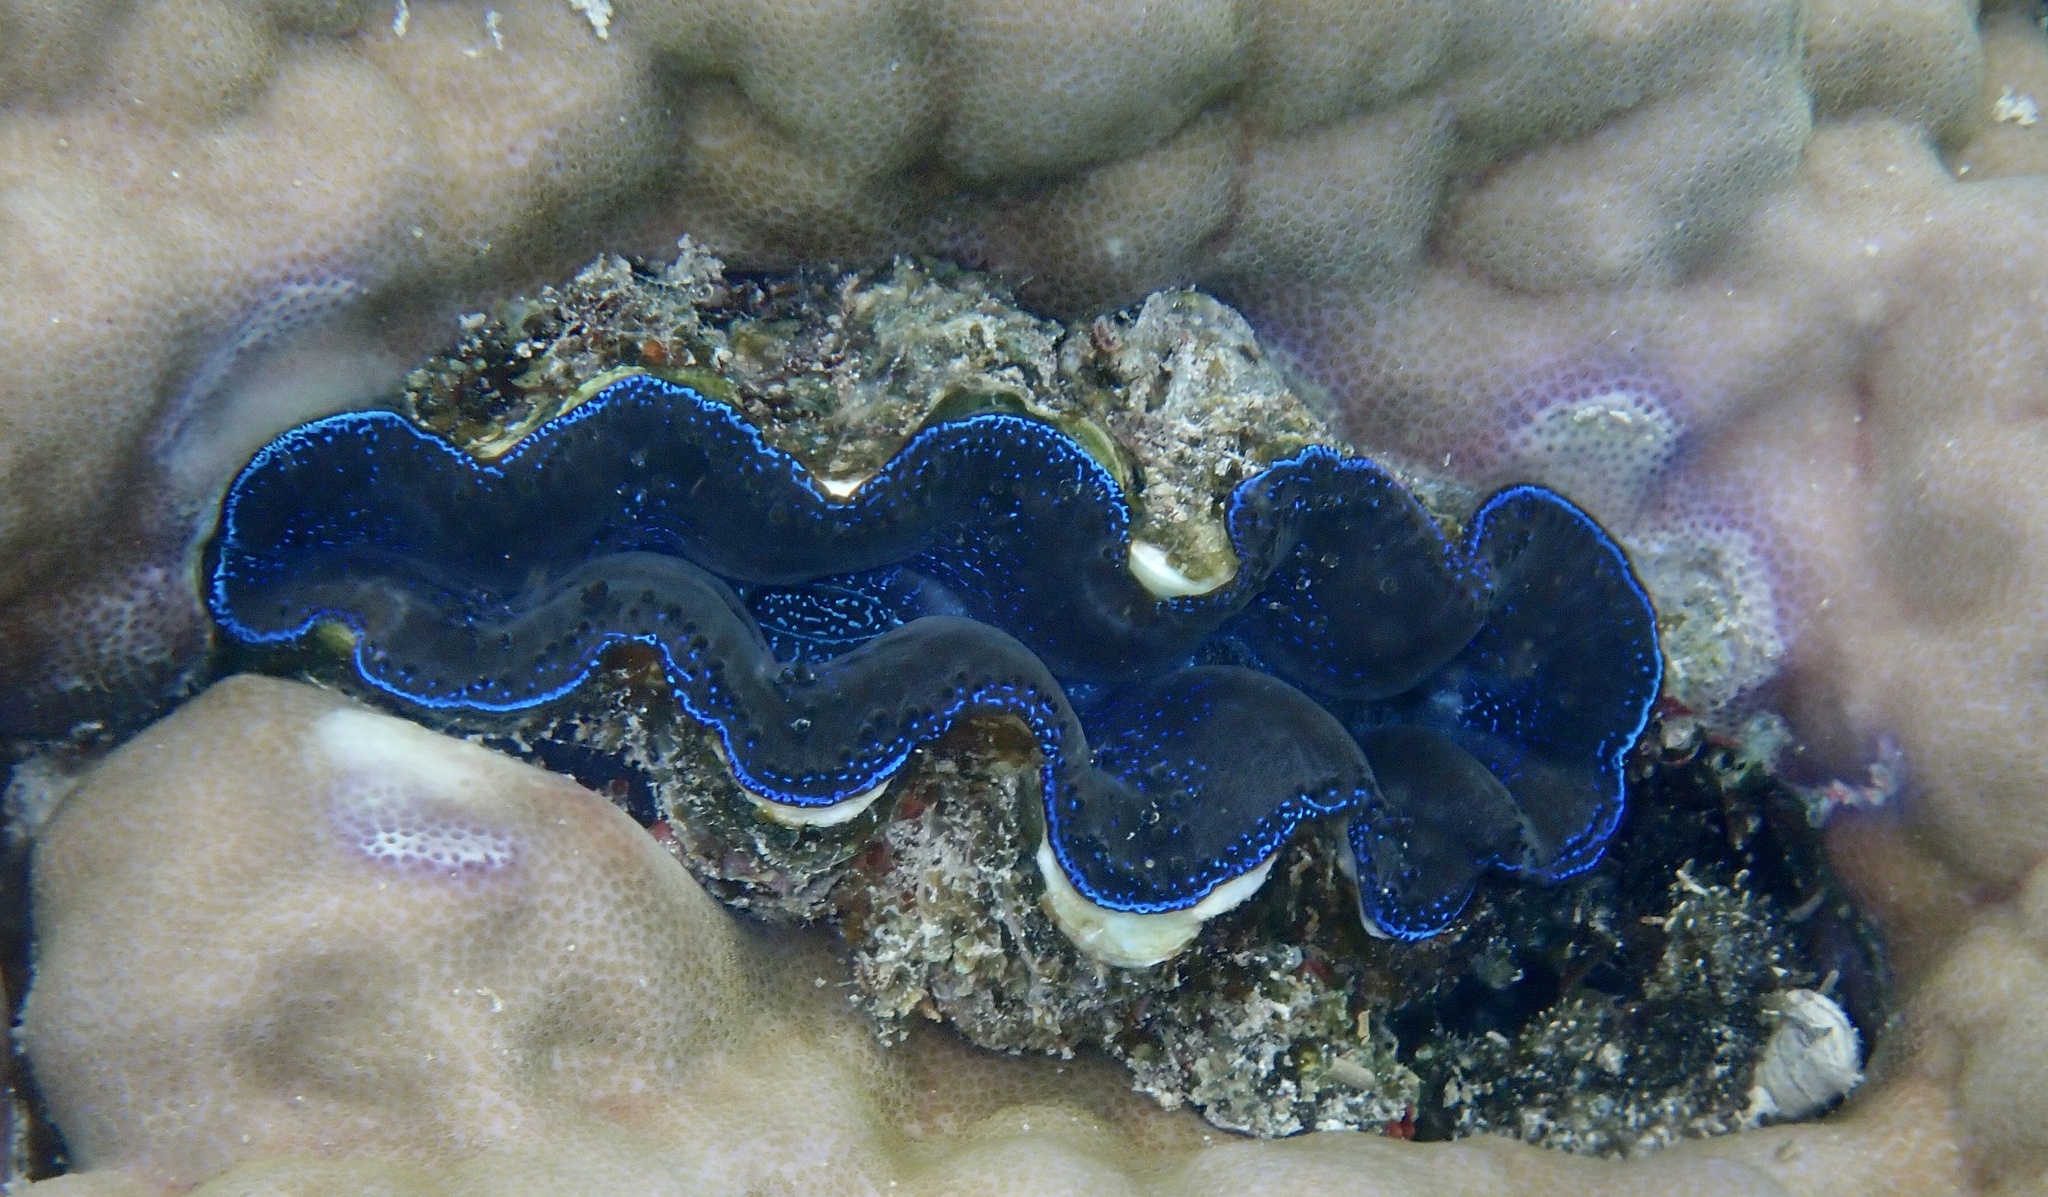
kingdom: Animalia
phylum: Mollusca
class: Bivalvia
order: Cardiida
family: Cardiidae
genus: Tridacna
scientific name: Tridacna crocea
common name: Boring clam
